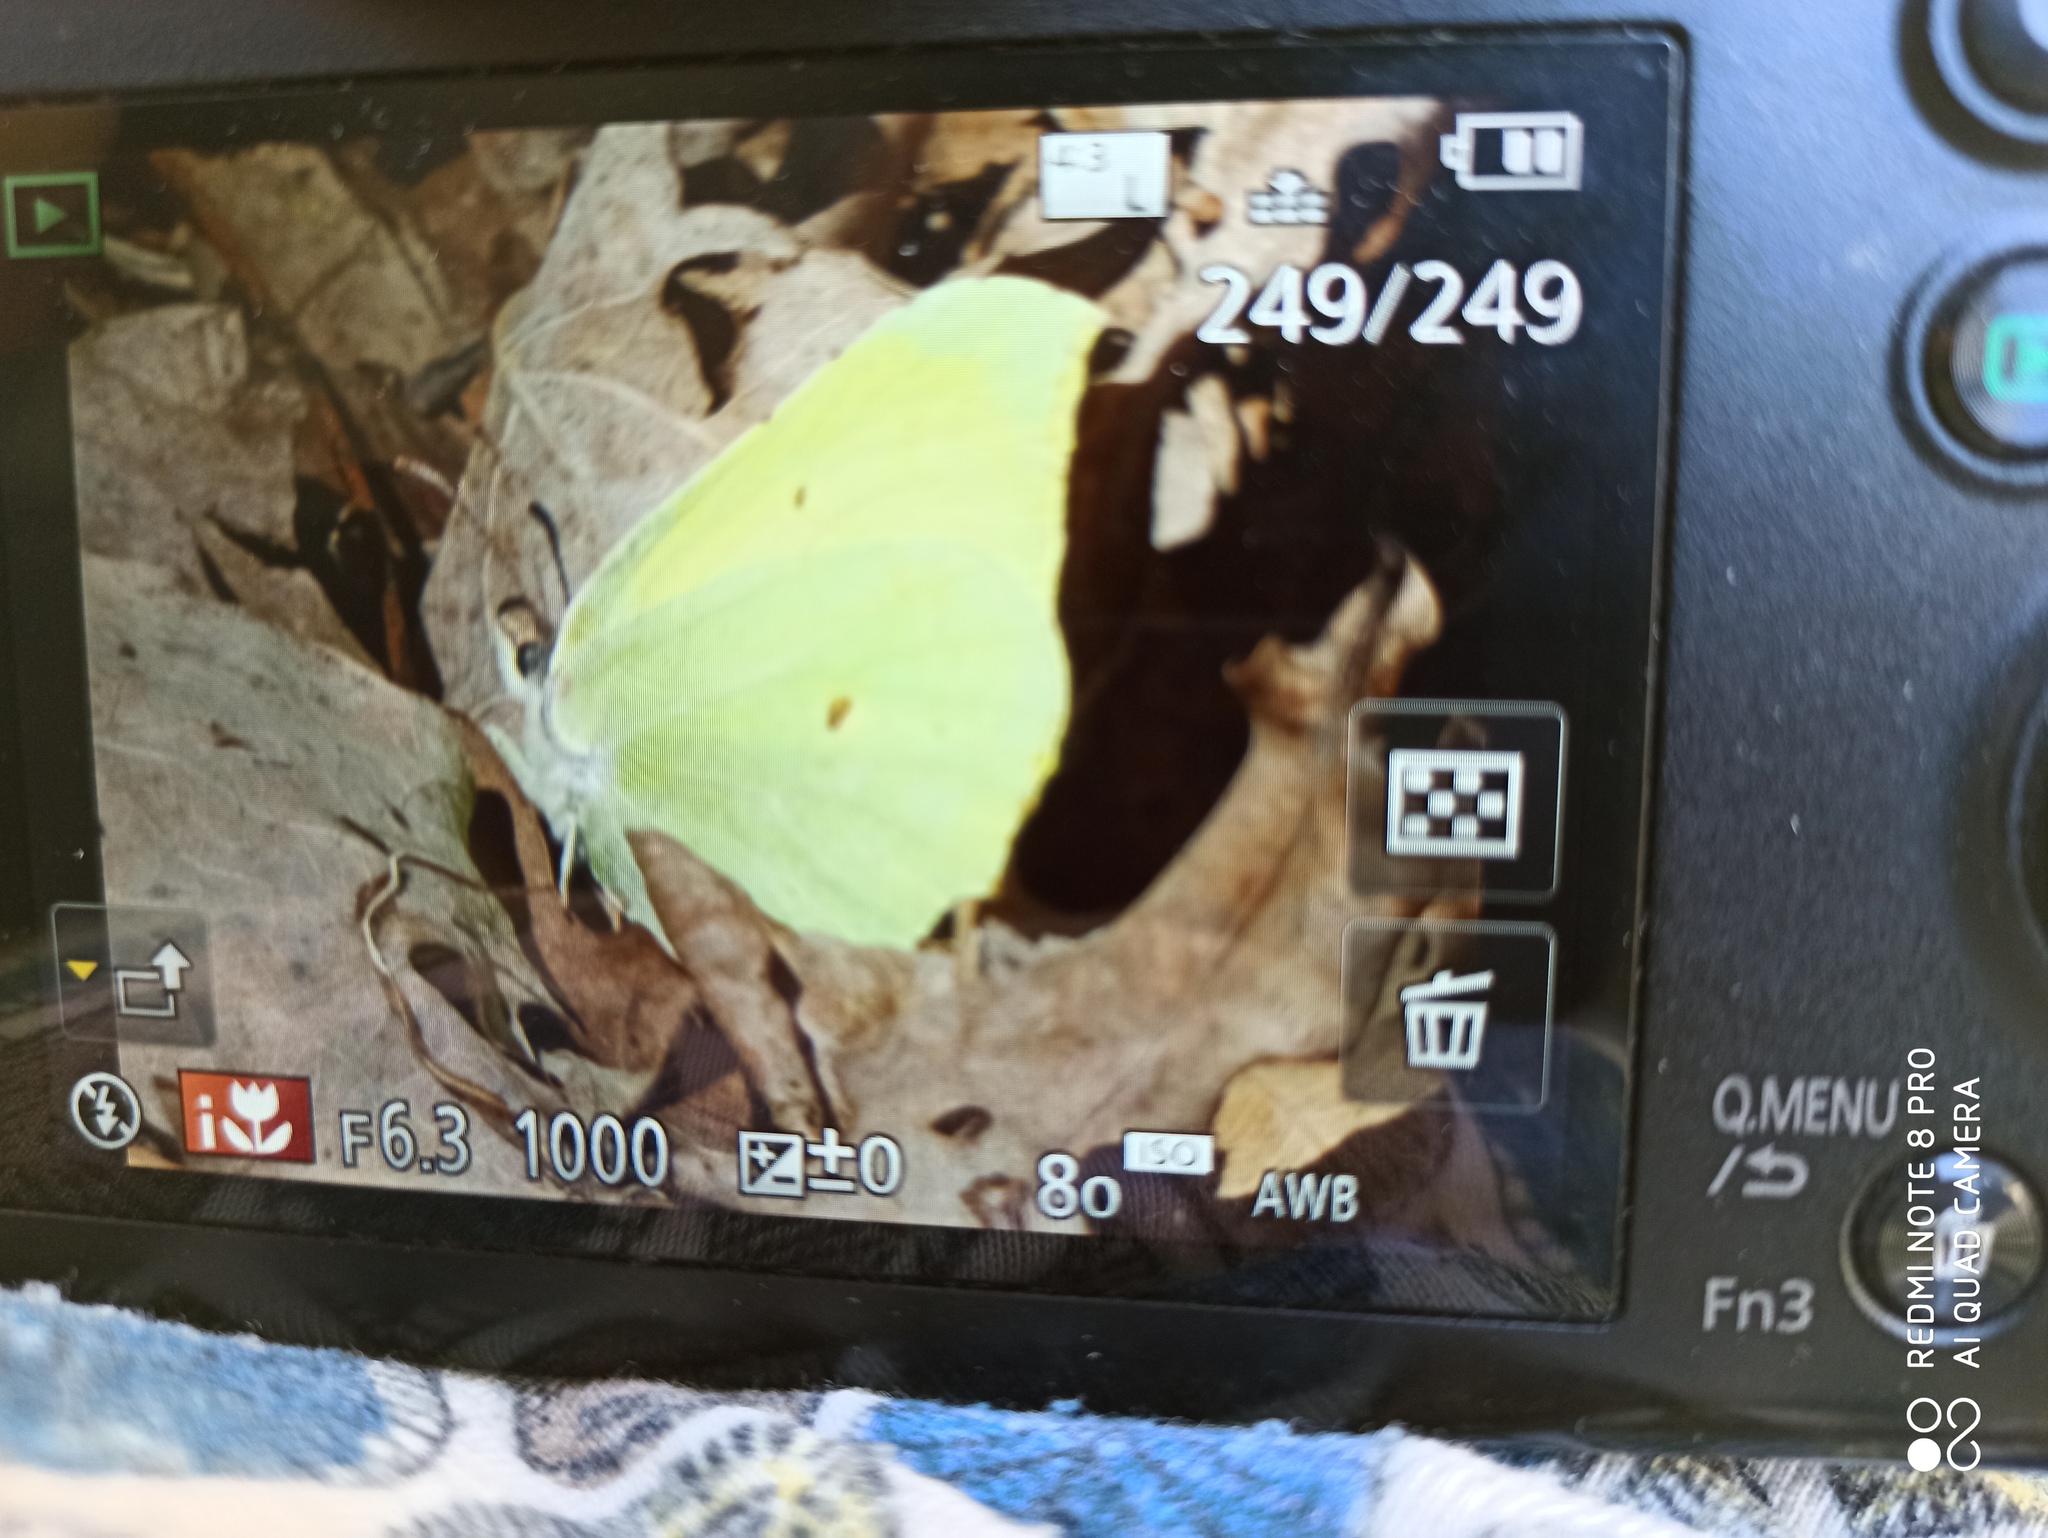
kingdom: Animalia
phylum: Arthropoda
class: Insecta
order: Lepidoptera
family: Pieridae
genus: Gonepteryx
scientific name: Gonepteryx rhamni
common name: Brimstone
